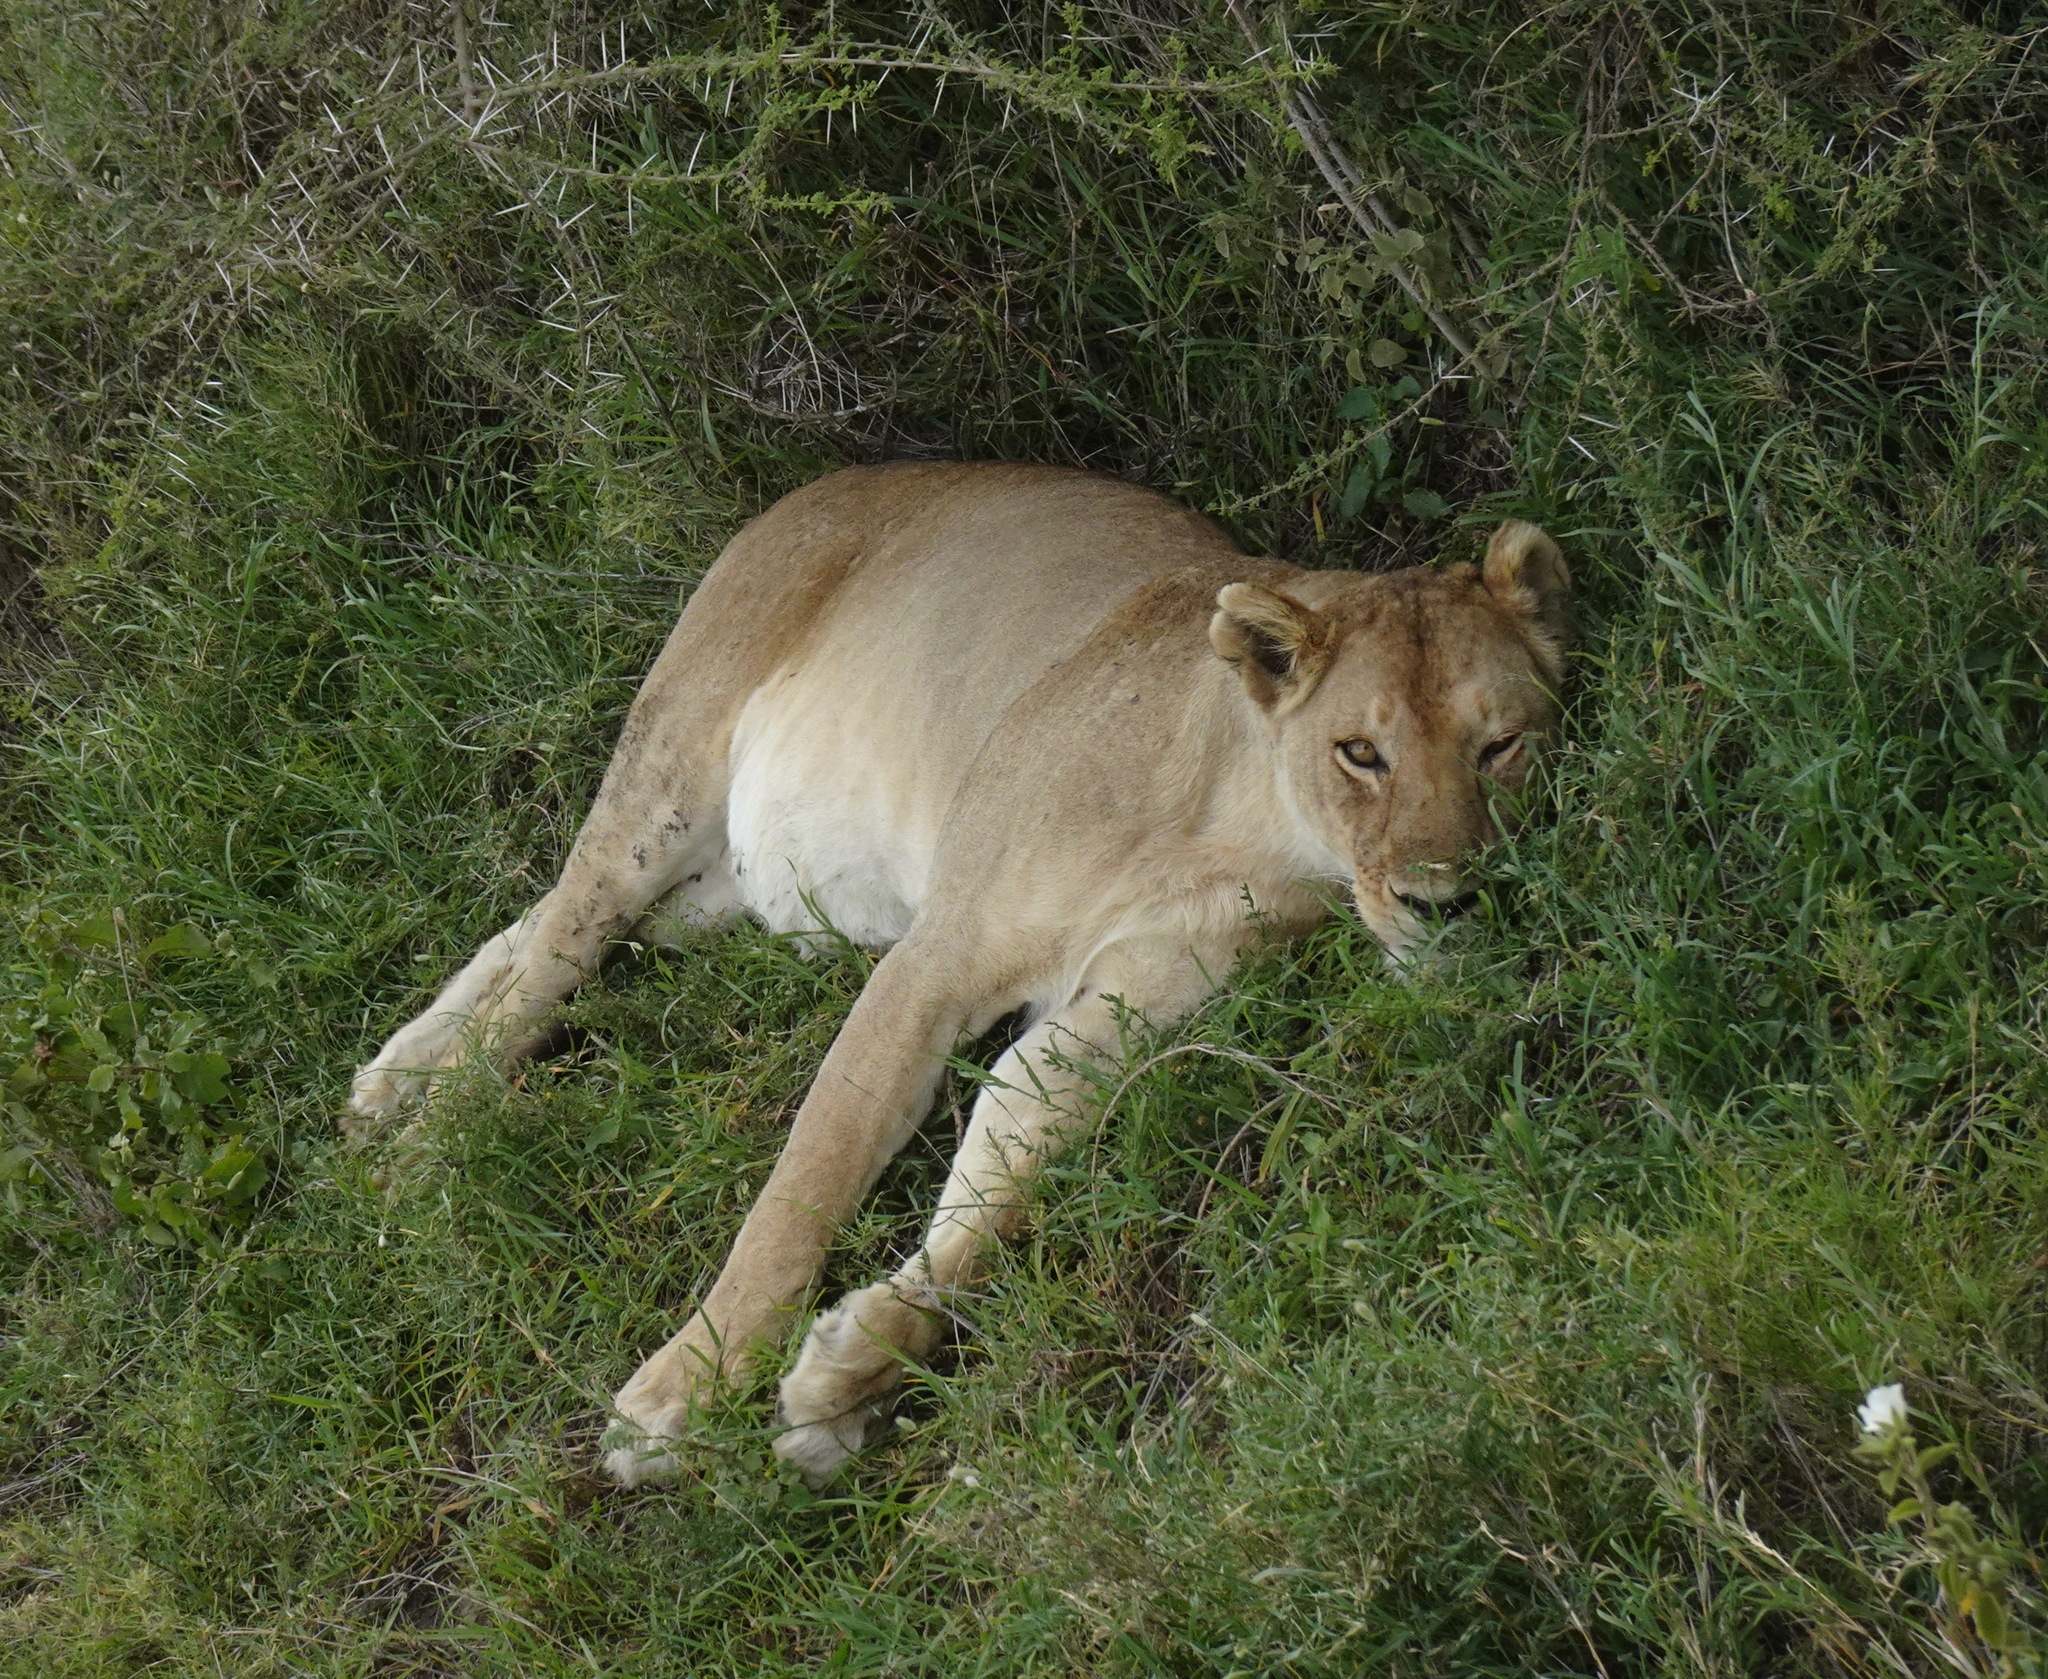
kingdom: Animalia
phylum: Chordata
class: Mammalia
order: Carnivora
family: Felidae
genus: Panthera
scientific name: Panthera leo
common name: Lion
